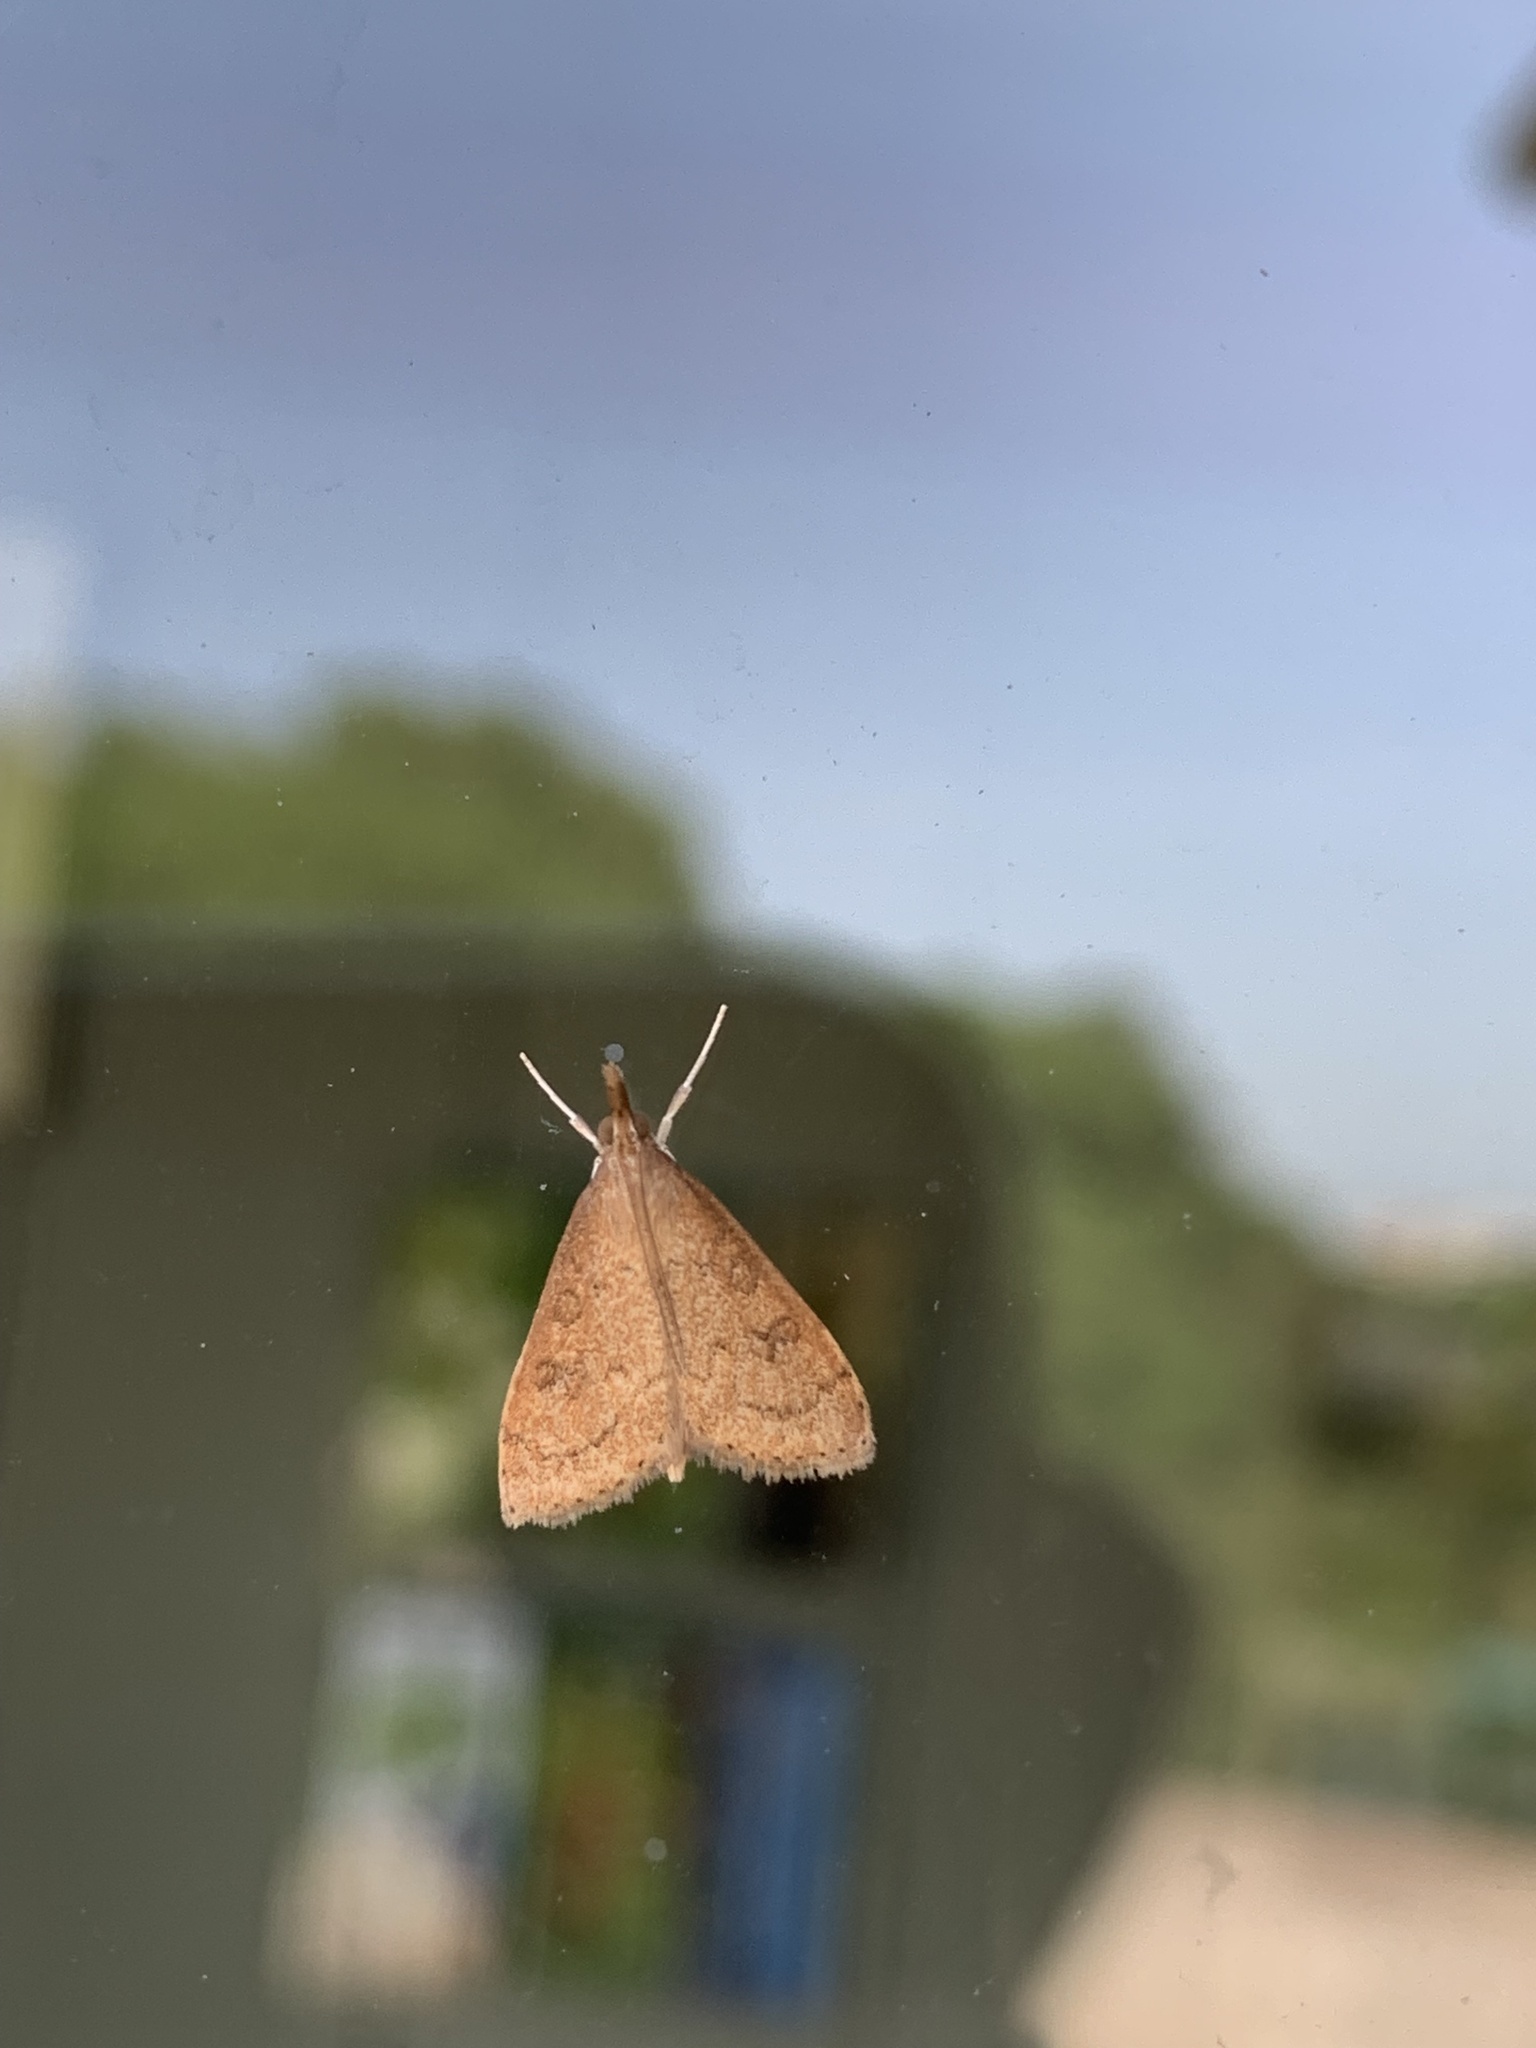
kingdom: Animalia
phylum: Arthropoda
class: Insecta
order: Lepidoptera
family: Crambidae
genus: Udea
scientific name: Udea rubigalis
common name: Celery leaftier moth
